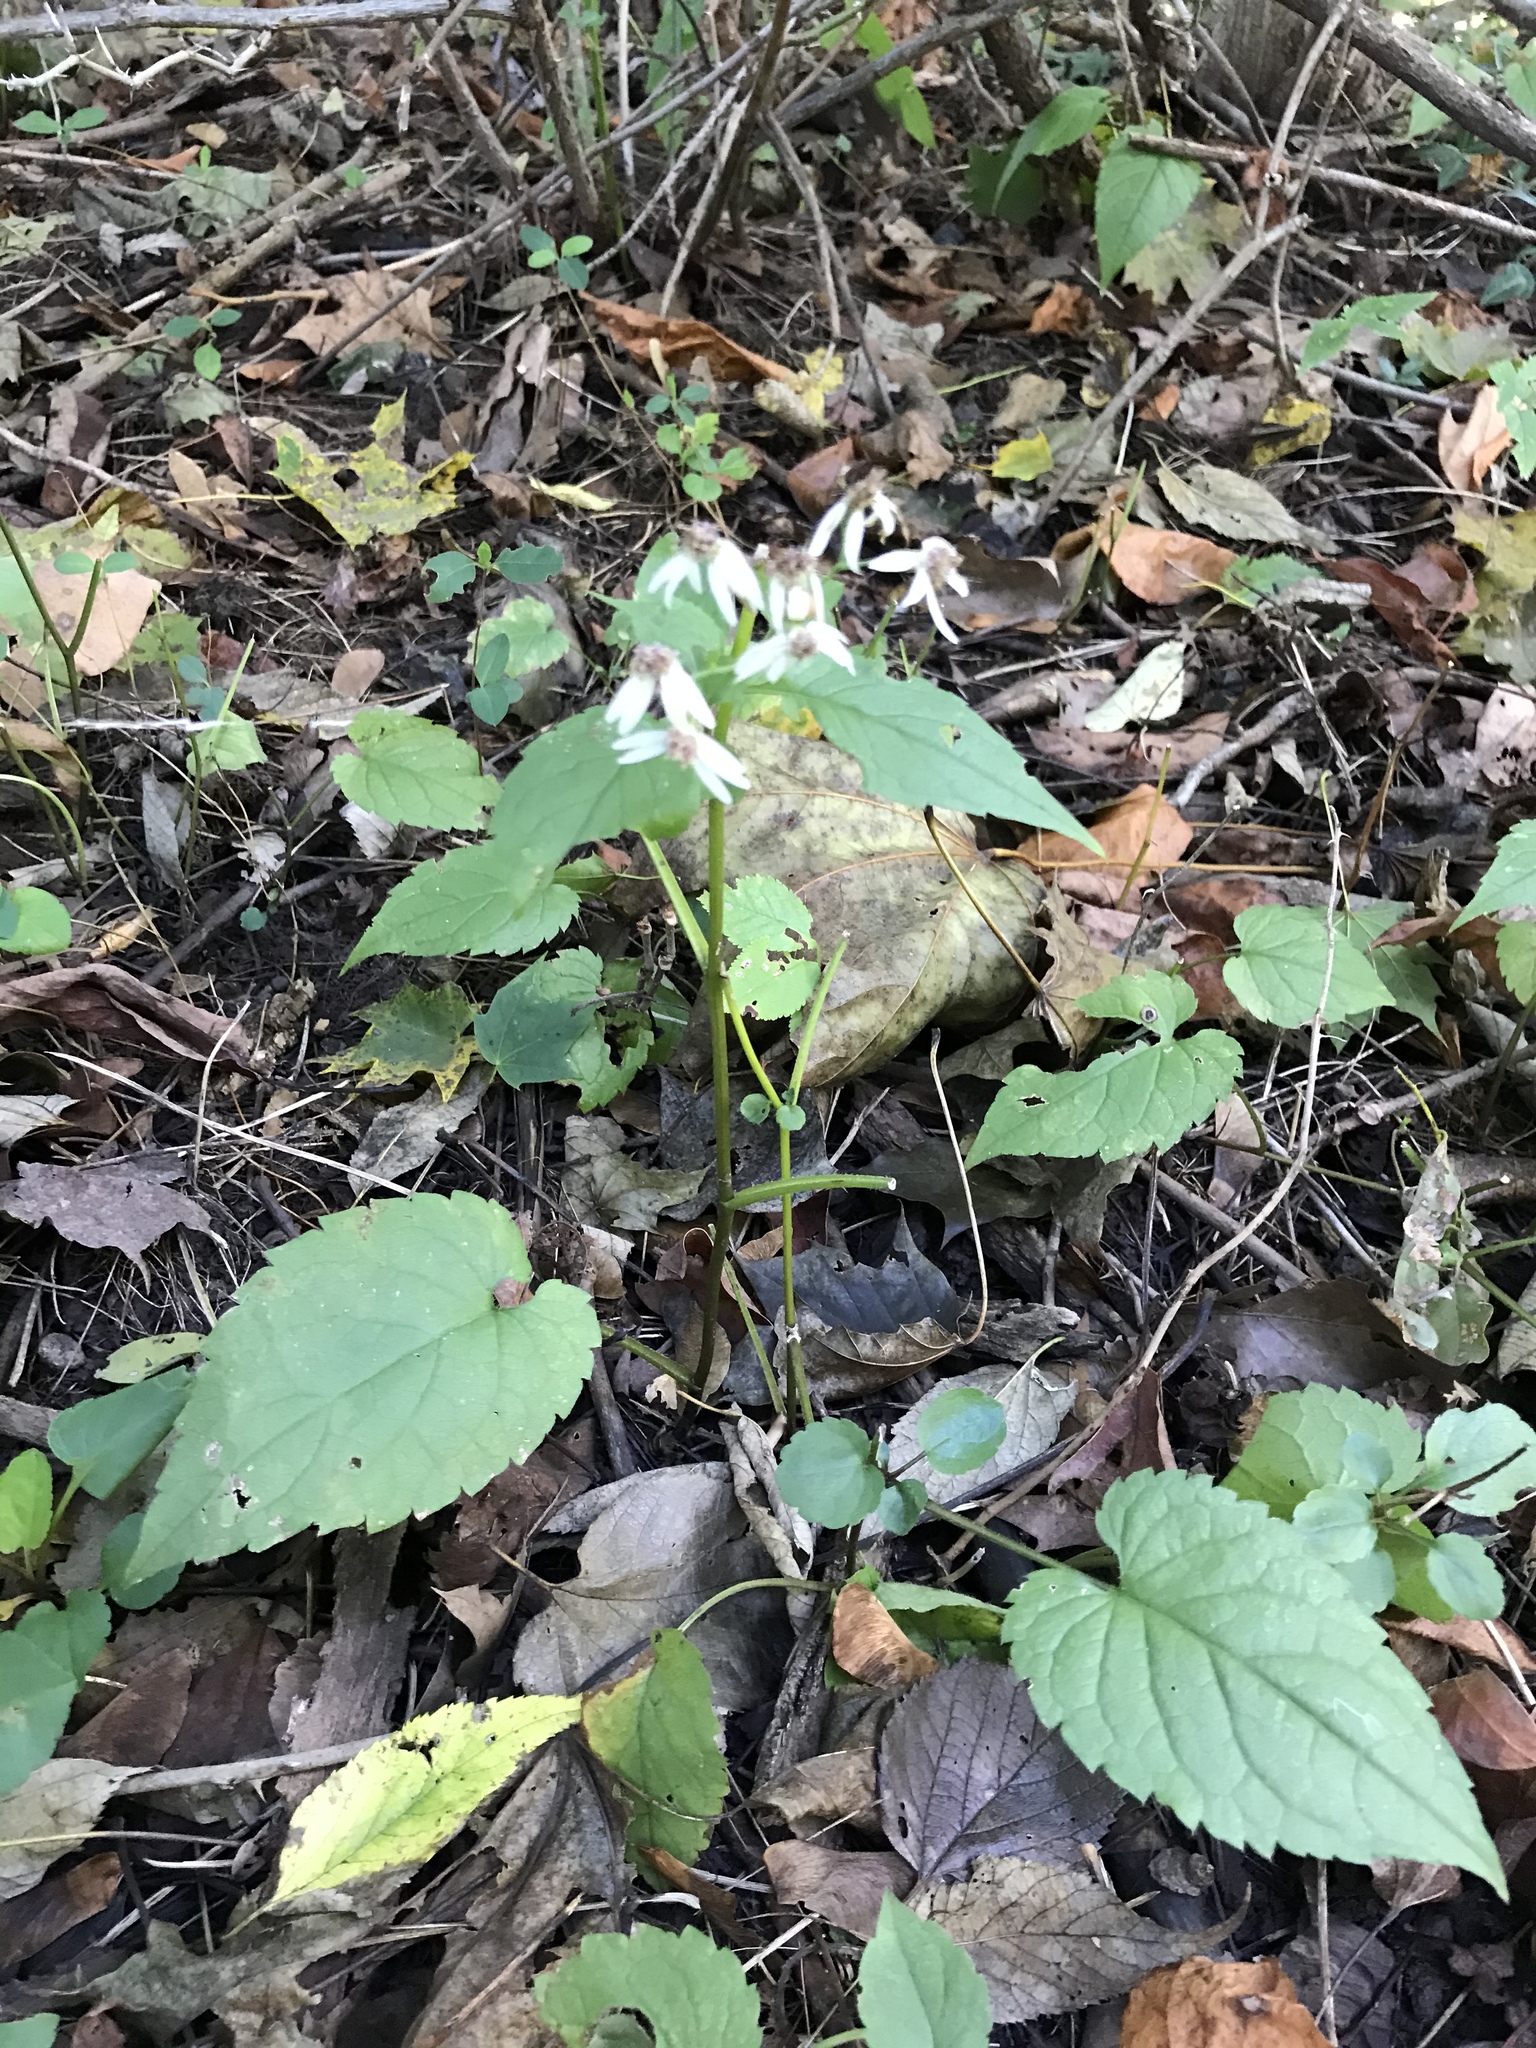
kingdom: Plantae
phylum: Tracheophyta
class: Magnoliopsida
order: Asterales
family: Asteraceae
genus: Eurybia
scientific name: Eurybia divaricata
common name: White wood aster
